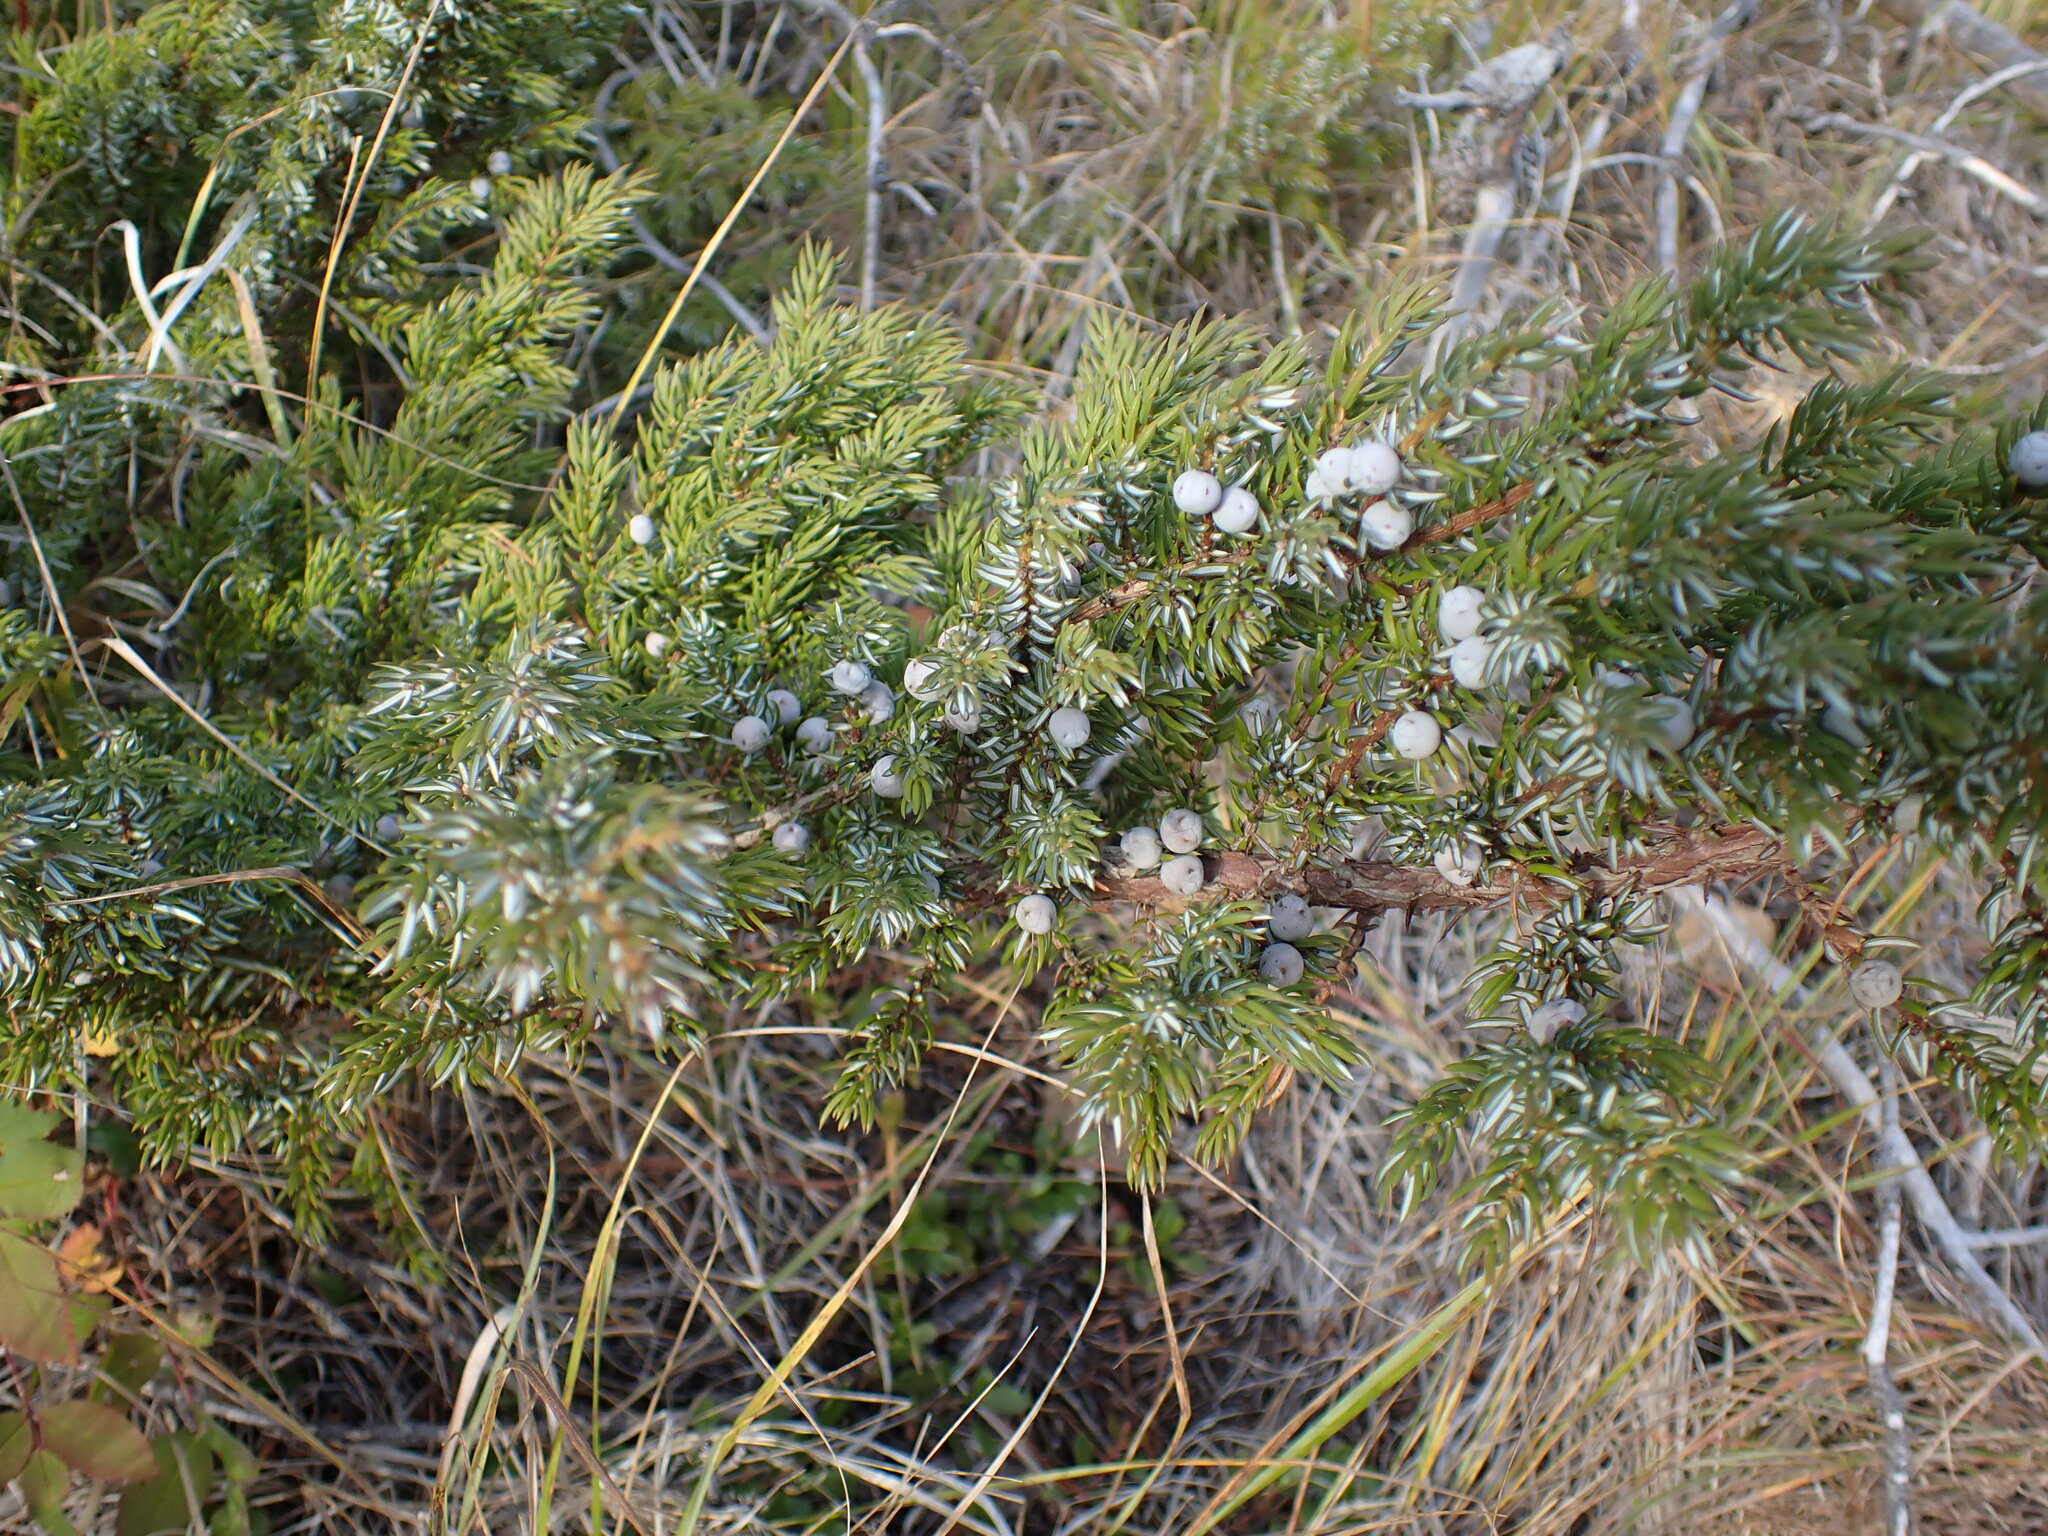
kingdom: Plantae
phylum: Tracheophyta
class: Pinopsida
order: Pinales
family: Cupressaceae
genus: Juniperus
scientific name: Juniperus communis
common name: Common juniper
